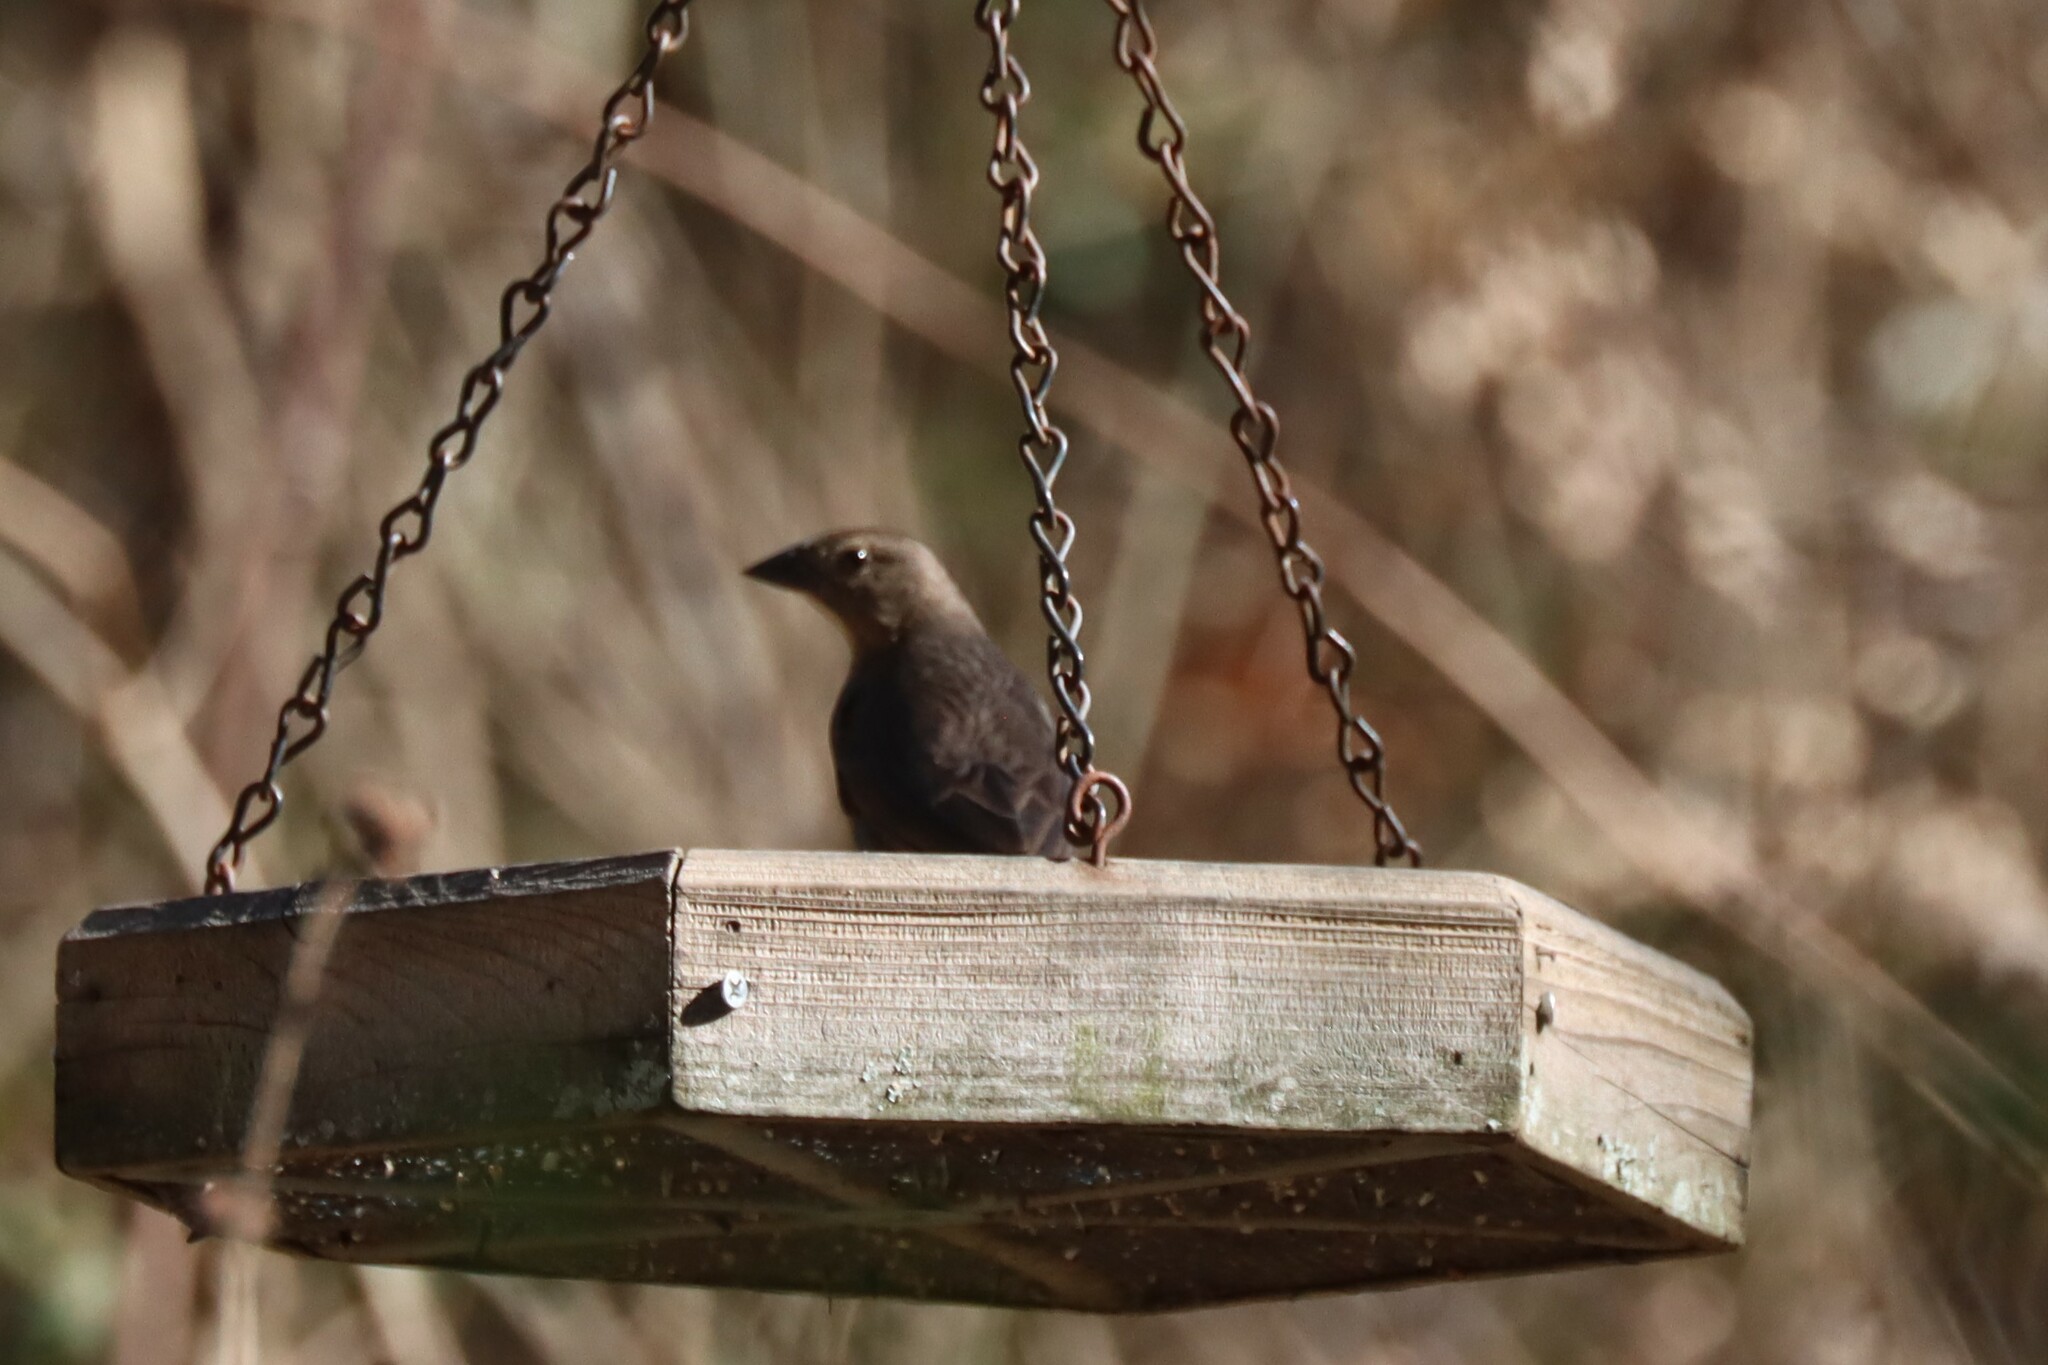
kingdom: Animalia
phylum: Chordata
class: Aves
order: Passeriformes
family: Icteridae
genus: Molothrus
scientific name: Molothrus ater
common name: Brown-headed cowbird
